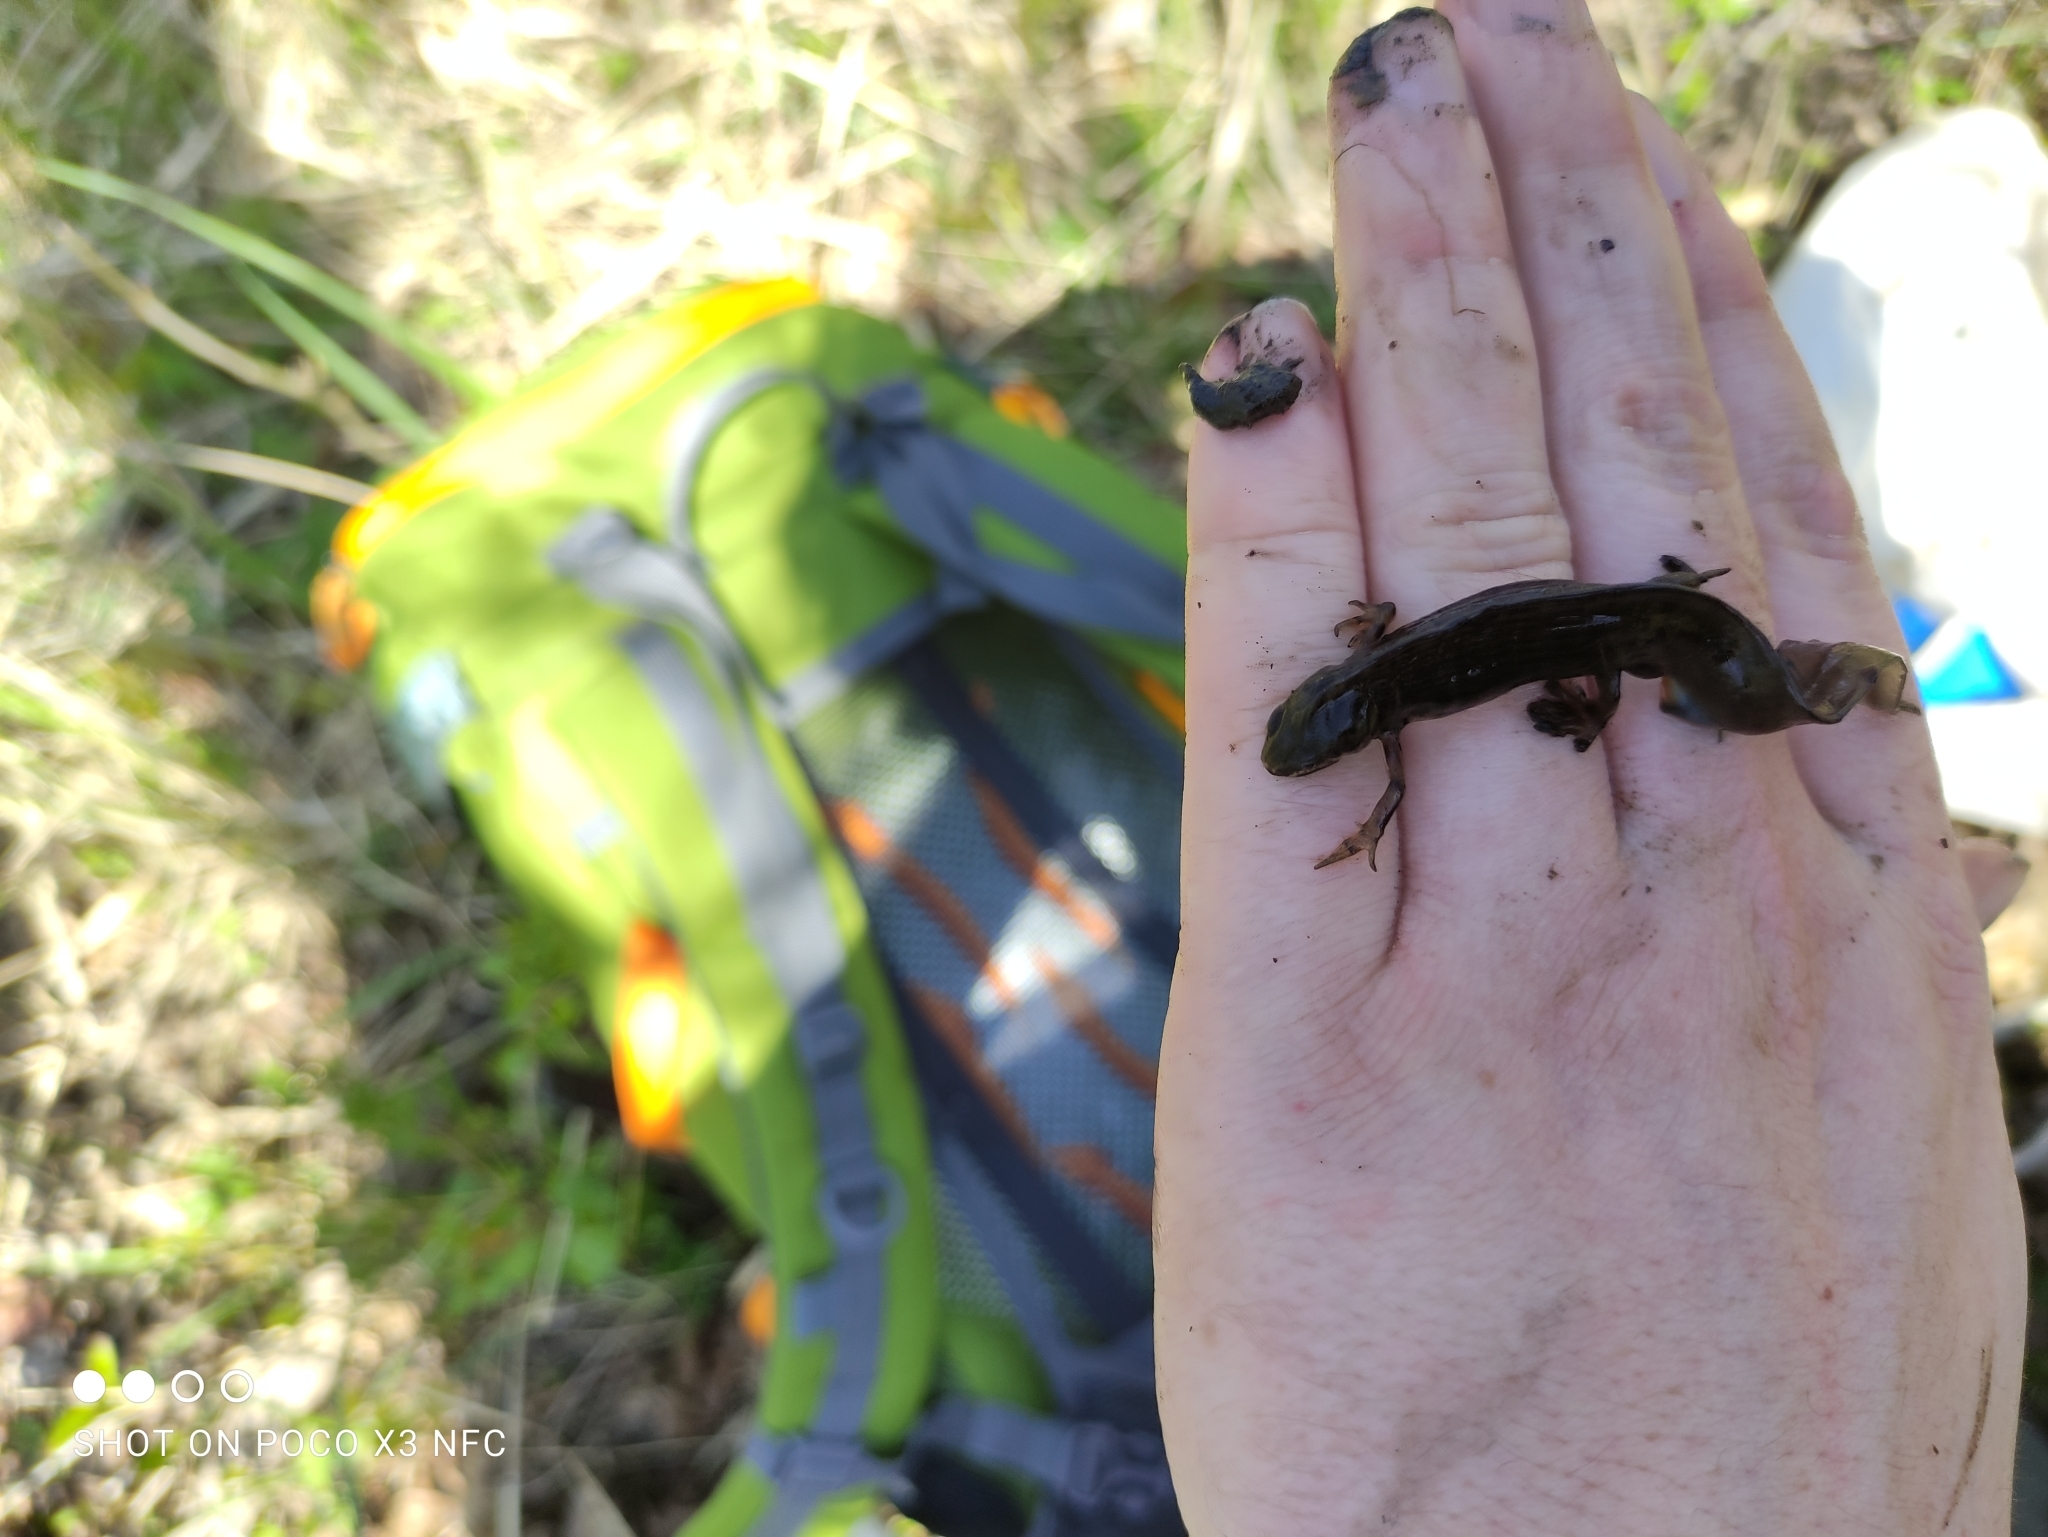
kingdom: Animalia
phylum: Chordata
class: Amphibia
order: Caudata
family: Salamandridae
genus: Lissotriton
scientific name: Lissotriton vulgaris
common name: Smooth newt
